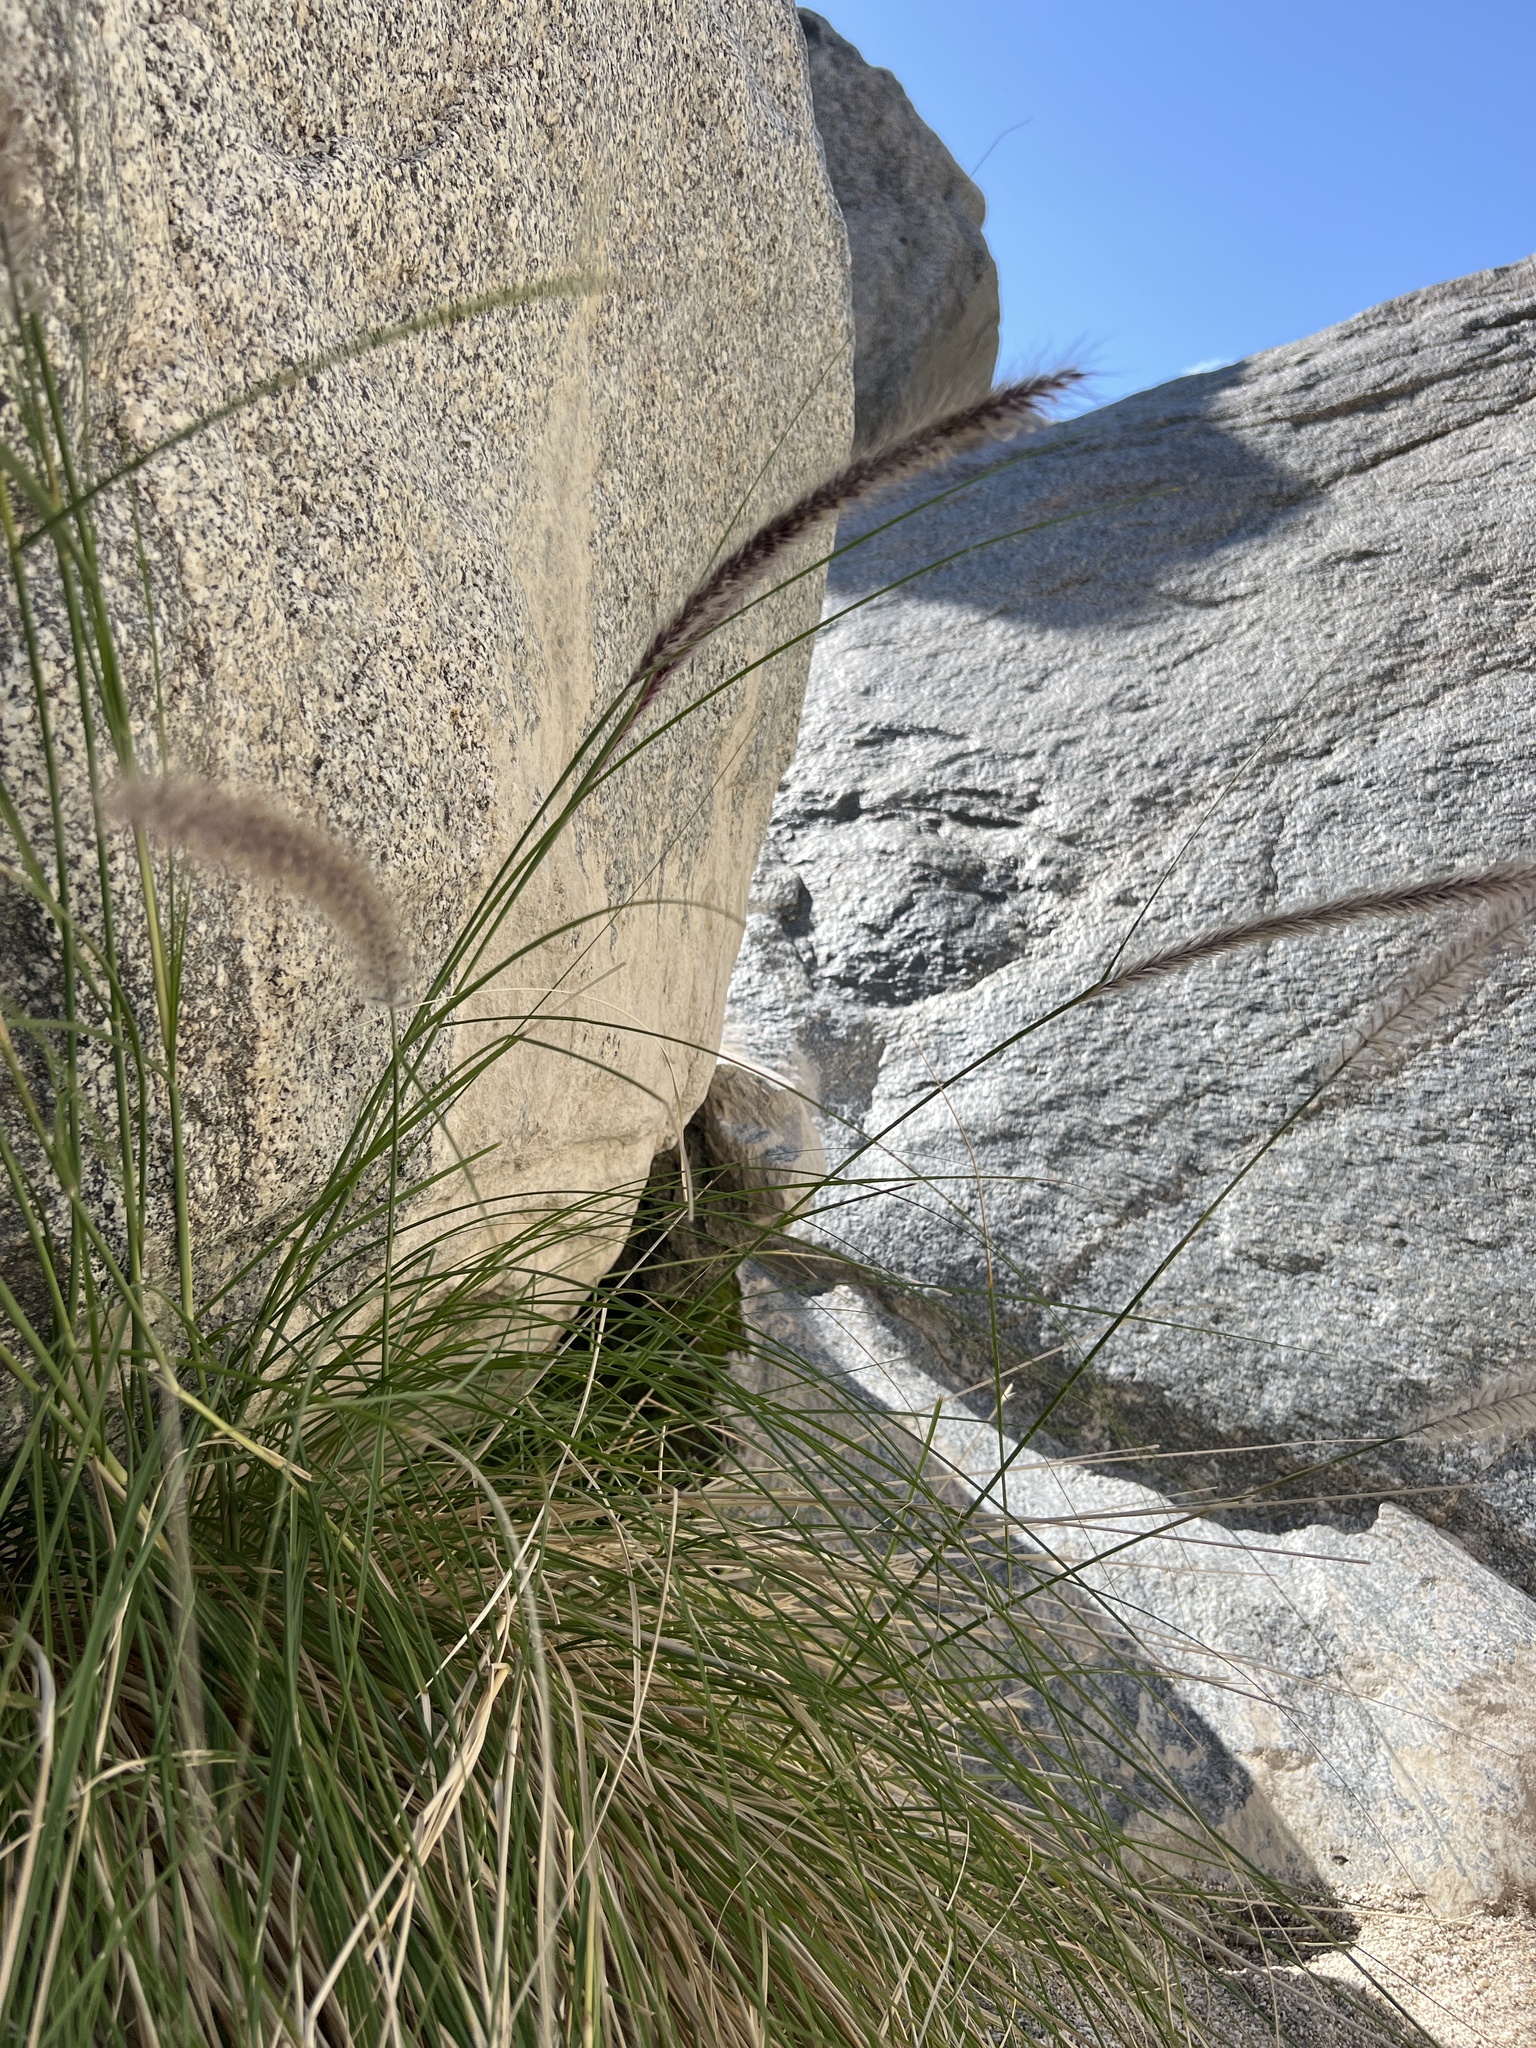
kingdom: Plantae
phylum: Tracheophyta
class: Liliopsida
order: Poales
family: Poaceae
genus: Cenchrus
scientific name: Cenchrus setaceus
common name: Crimson fountaingrass
